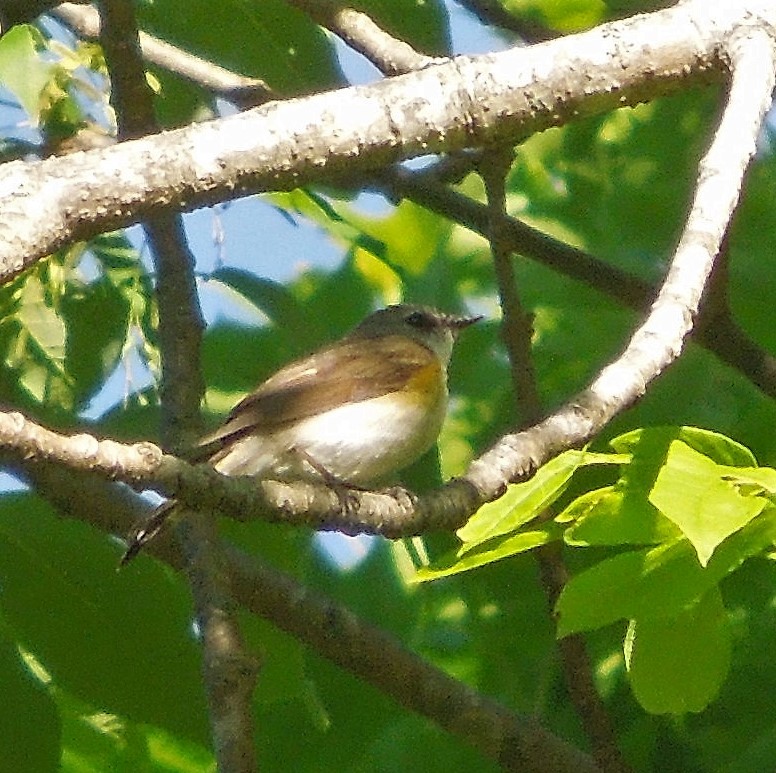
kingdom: Animalia
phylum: Chordata
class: Aves
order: Passeriformes
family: Parulidae
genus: Setophaga
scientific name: Setophaga ruticilla
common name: American redstart
